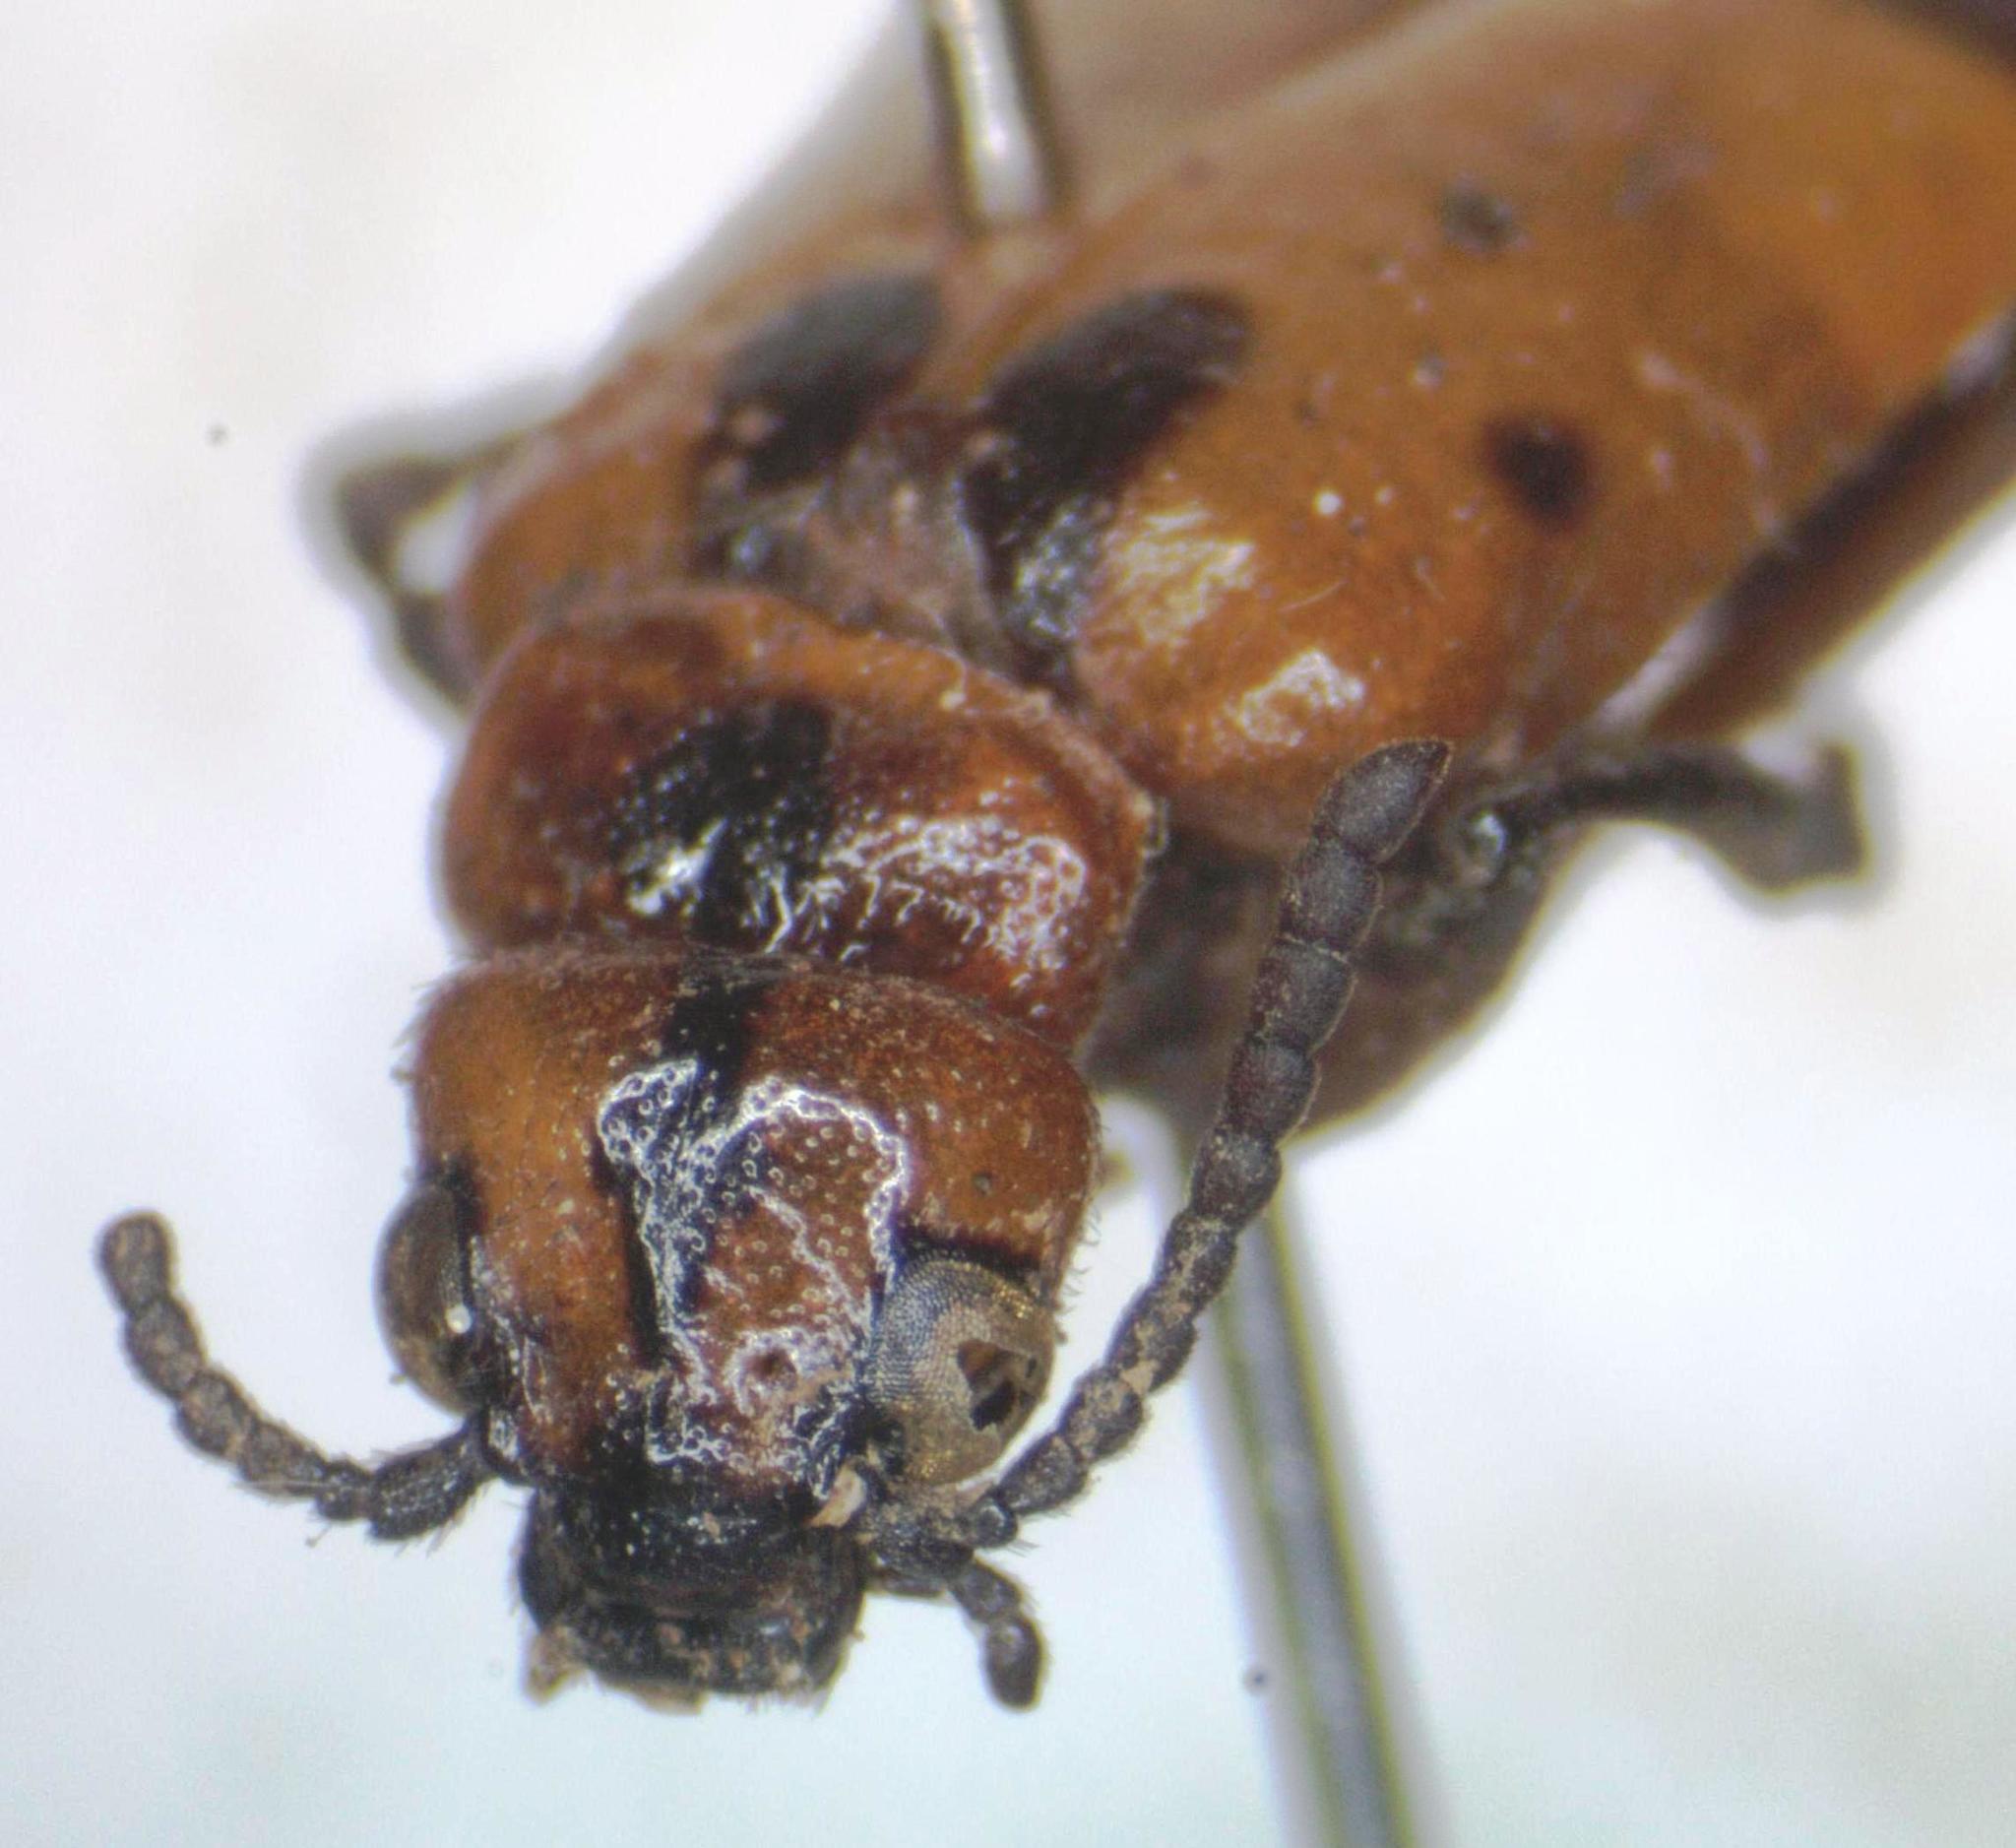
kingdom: Animalia
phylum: Arthropoda
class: Insecta
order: Coleoptera
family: Meloidae
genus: Tetraonyx
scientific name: Tetraonyx
